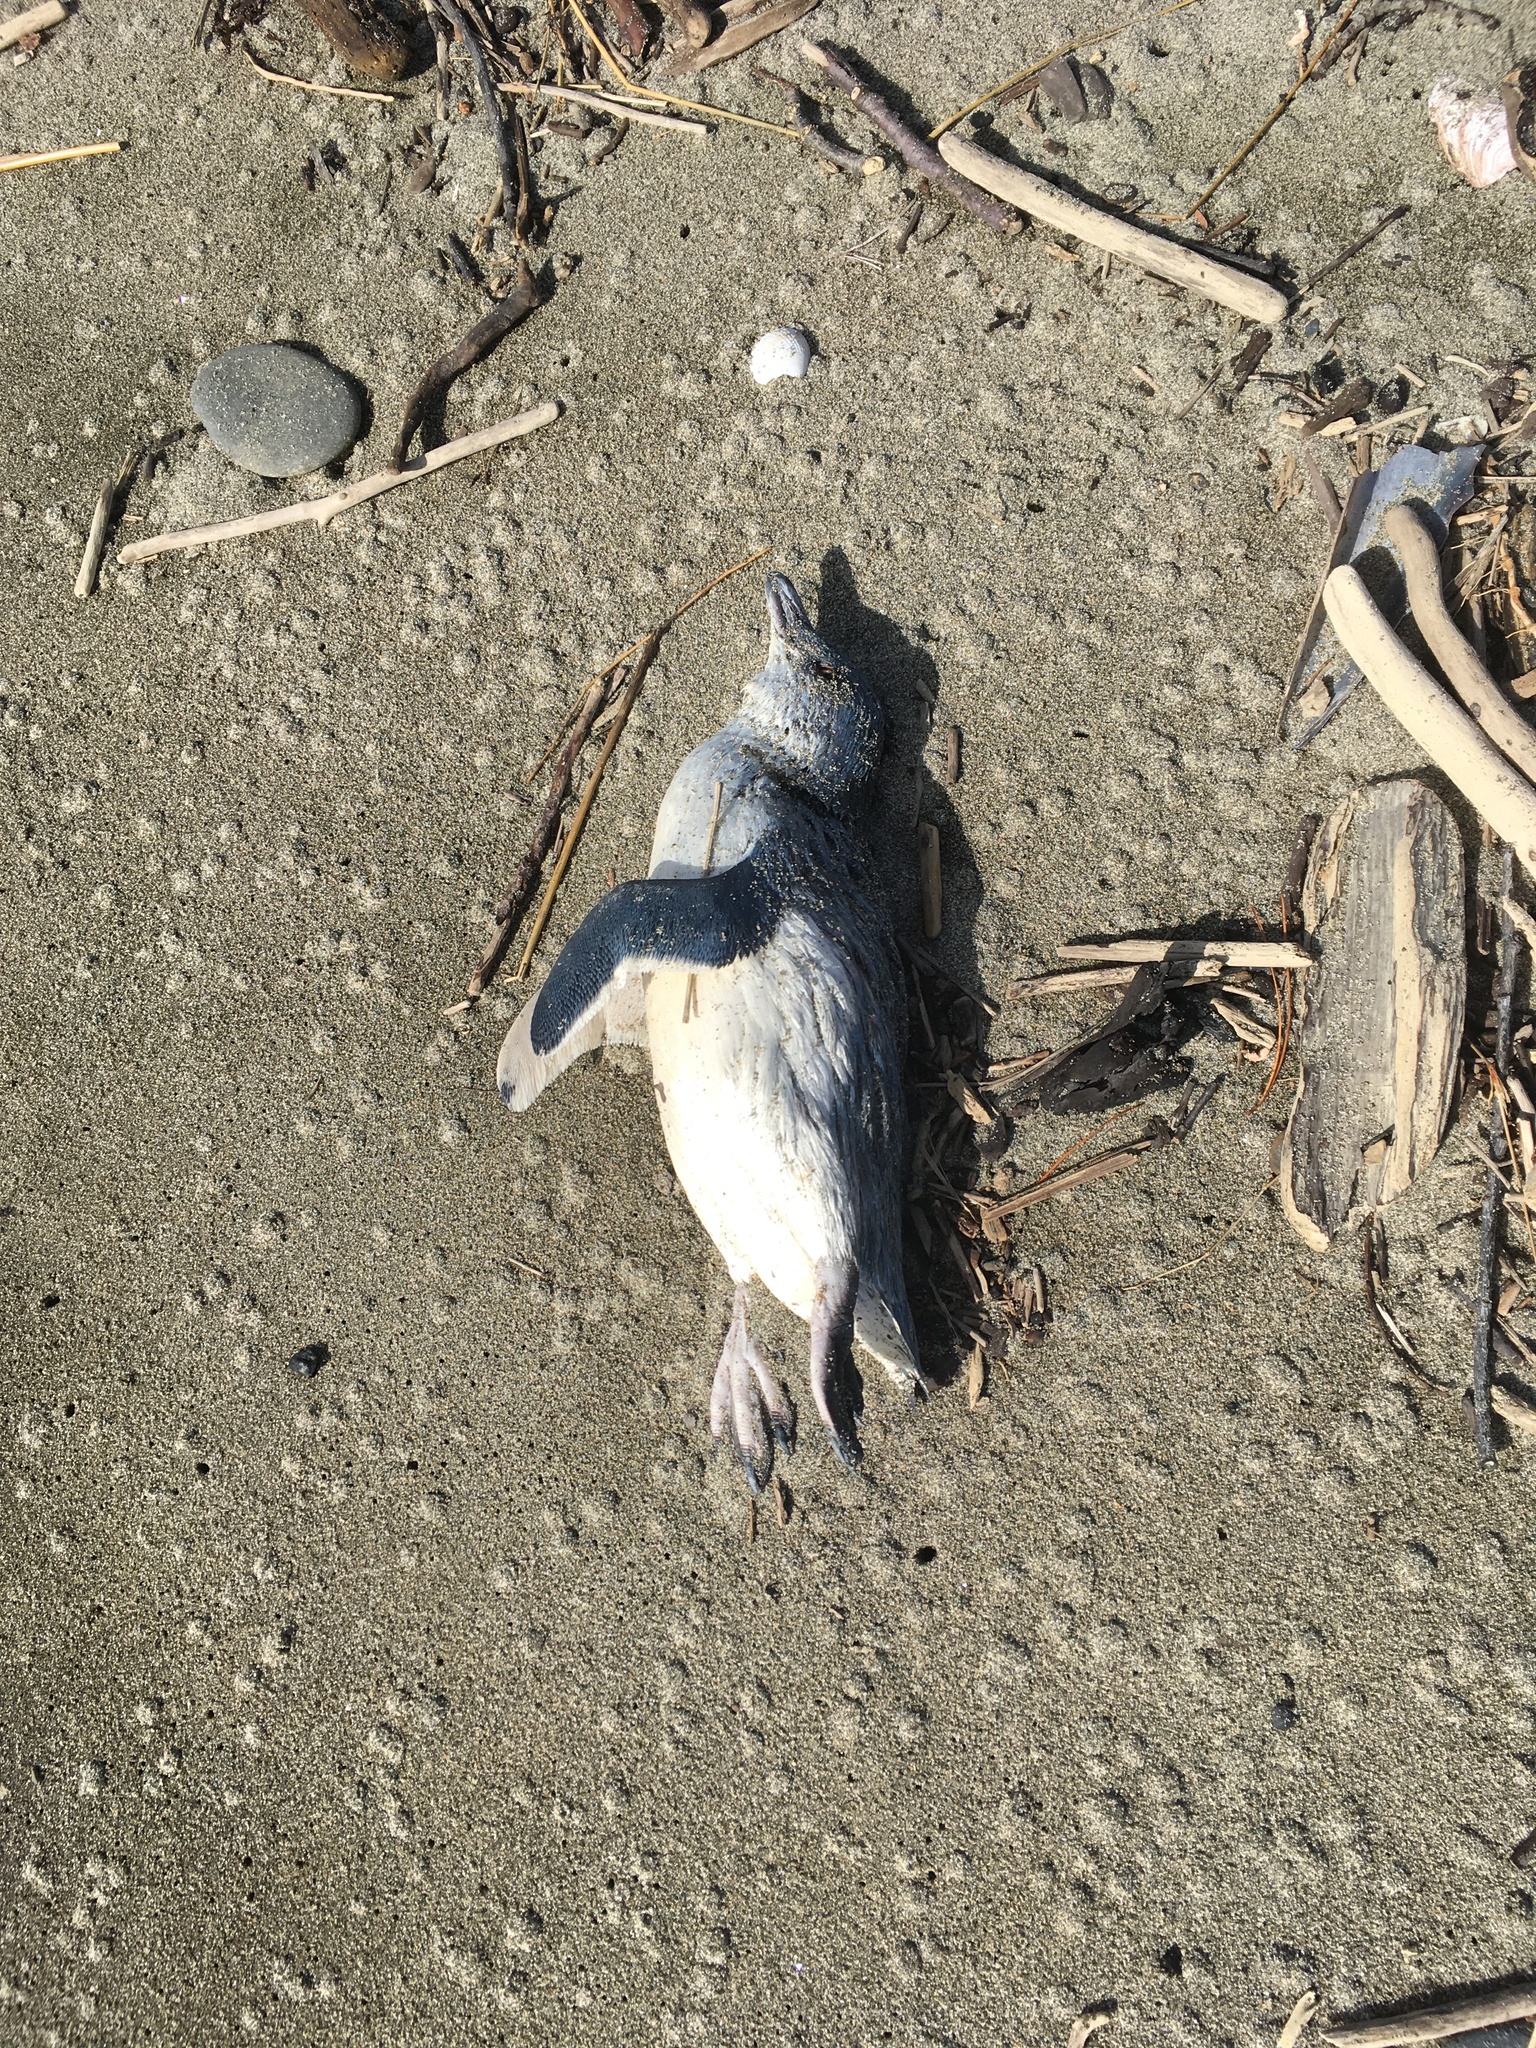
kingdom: Animalia
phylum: Chordata
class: Aves
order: Sphenisciformes
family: Spheniscidae
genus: Eudyptula
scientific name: Eudyptula minor
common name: Little penguin
